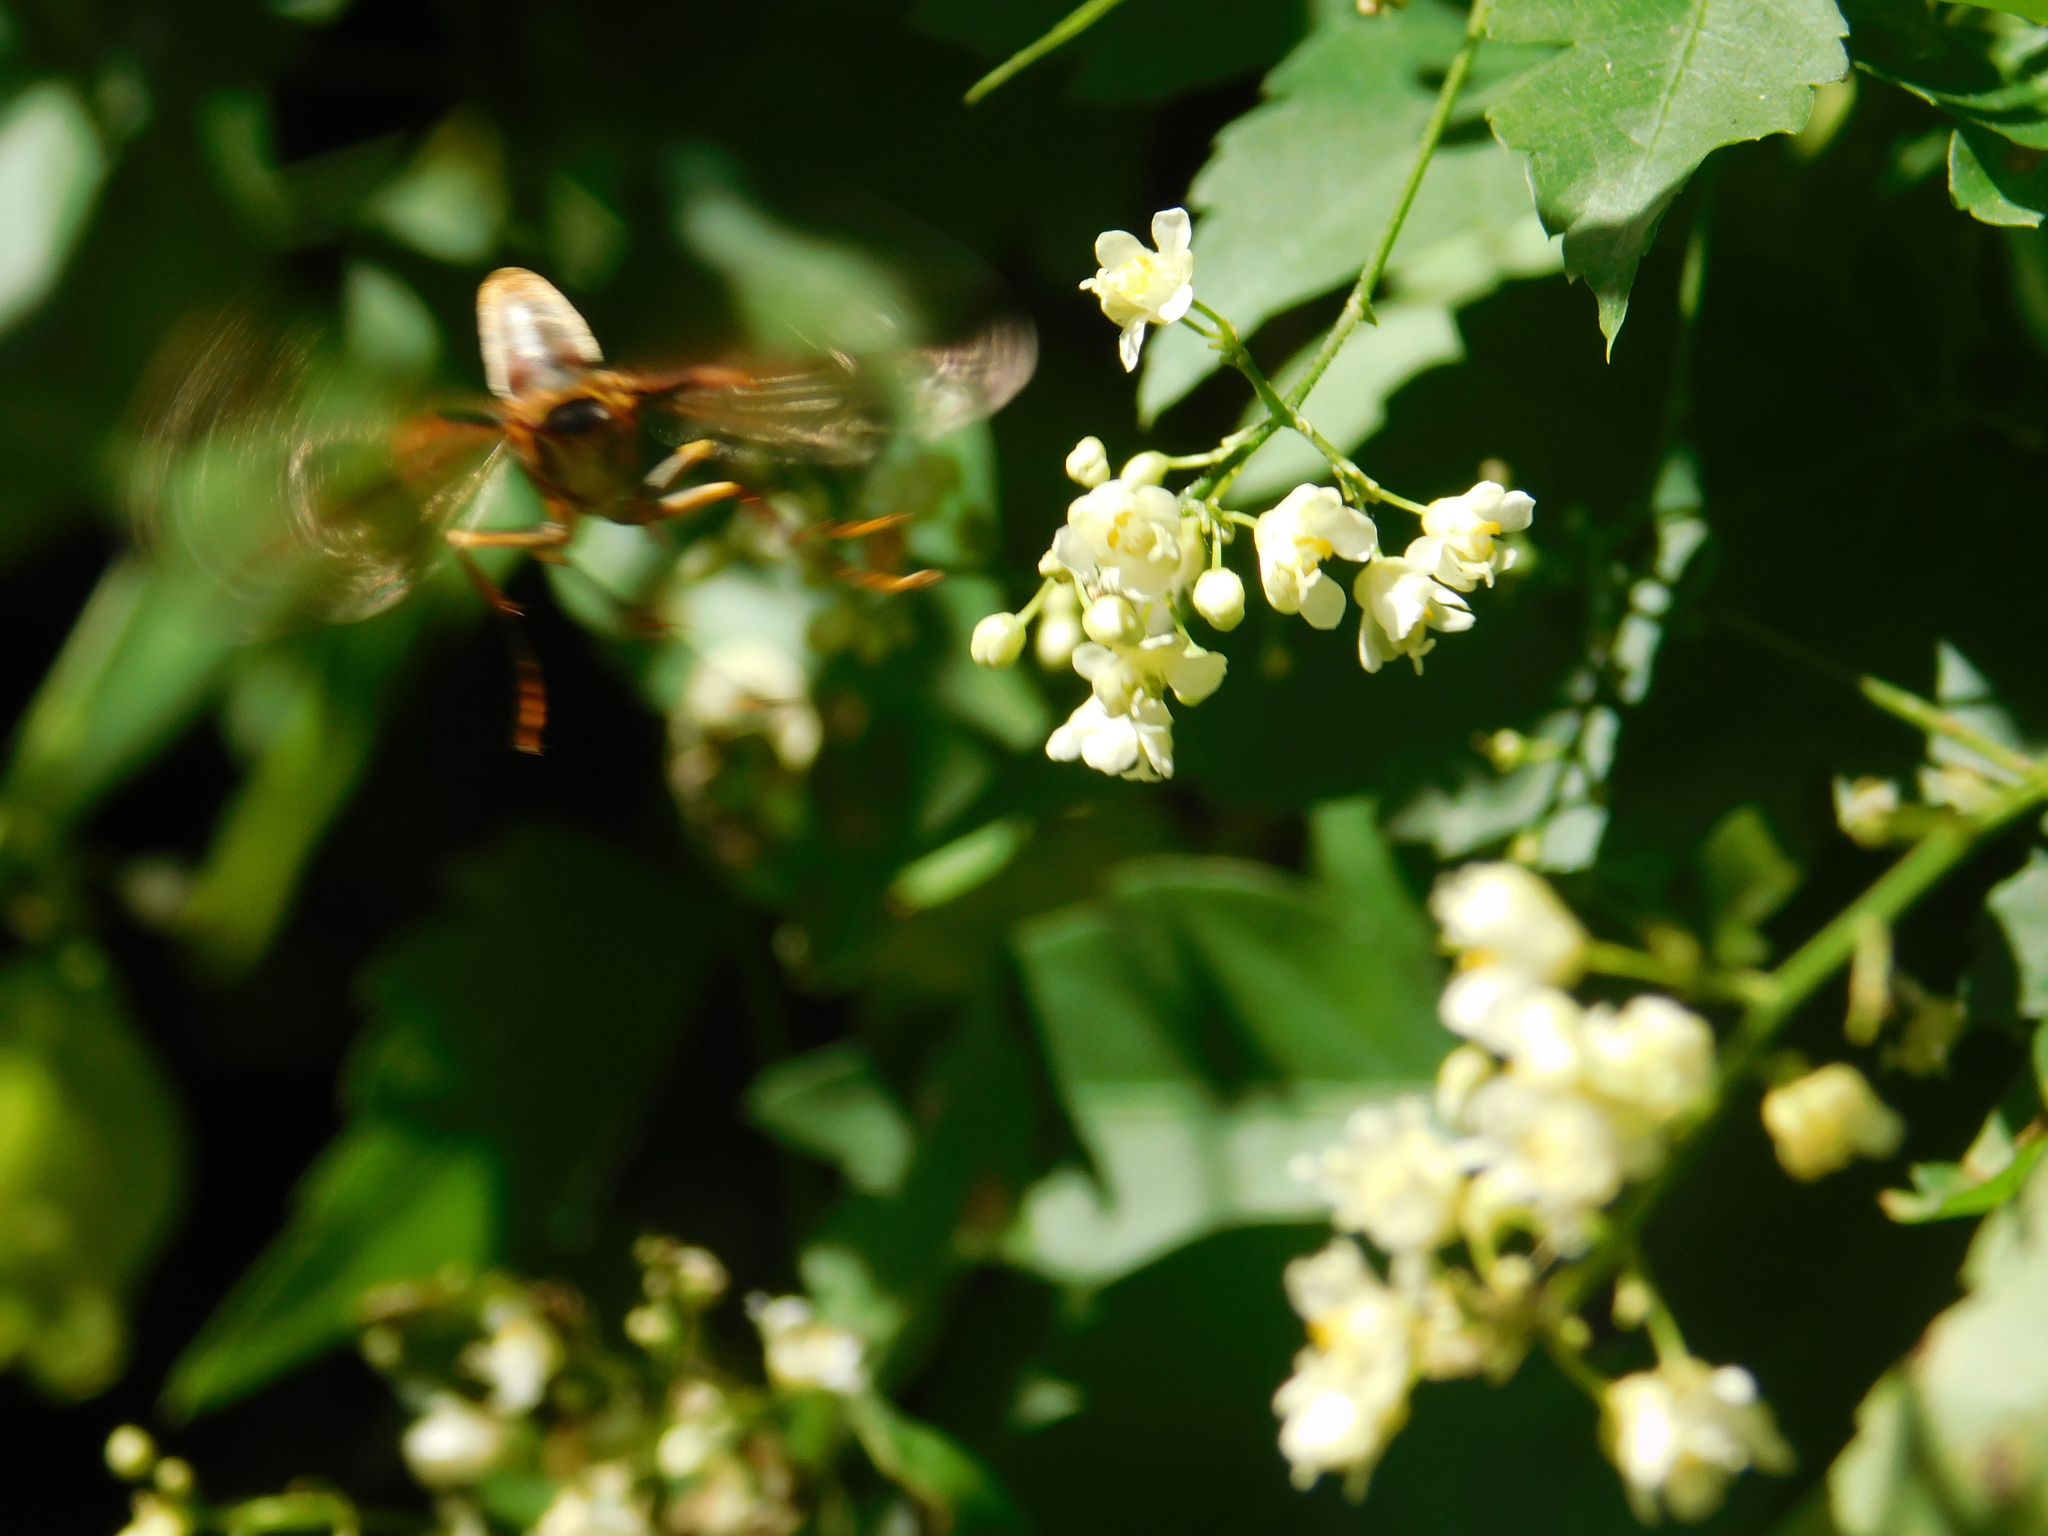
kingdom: Animalia
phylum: Arthropoda
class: Insecta
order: Lepidoptera
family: Nymphalidae
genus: Libytheana
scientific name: Libytheana carinenta
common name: American snout
